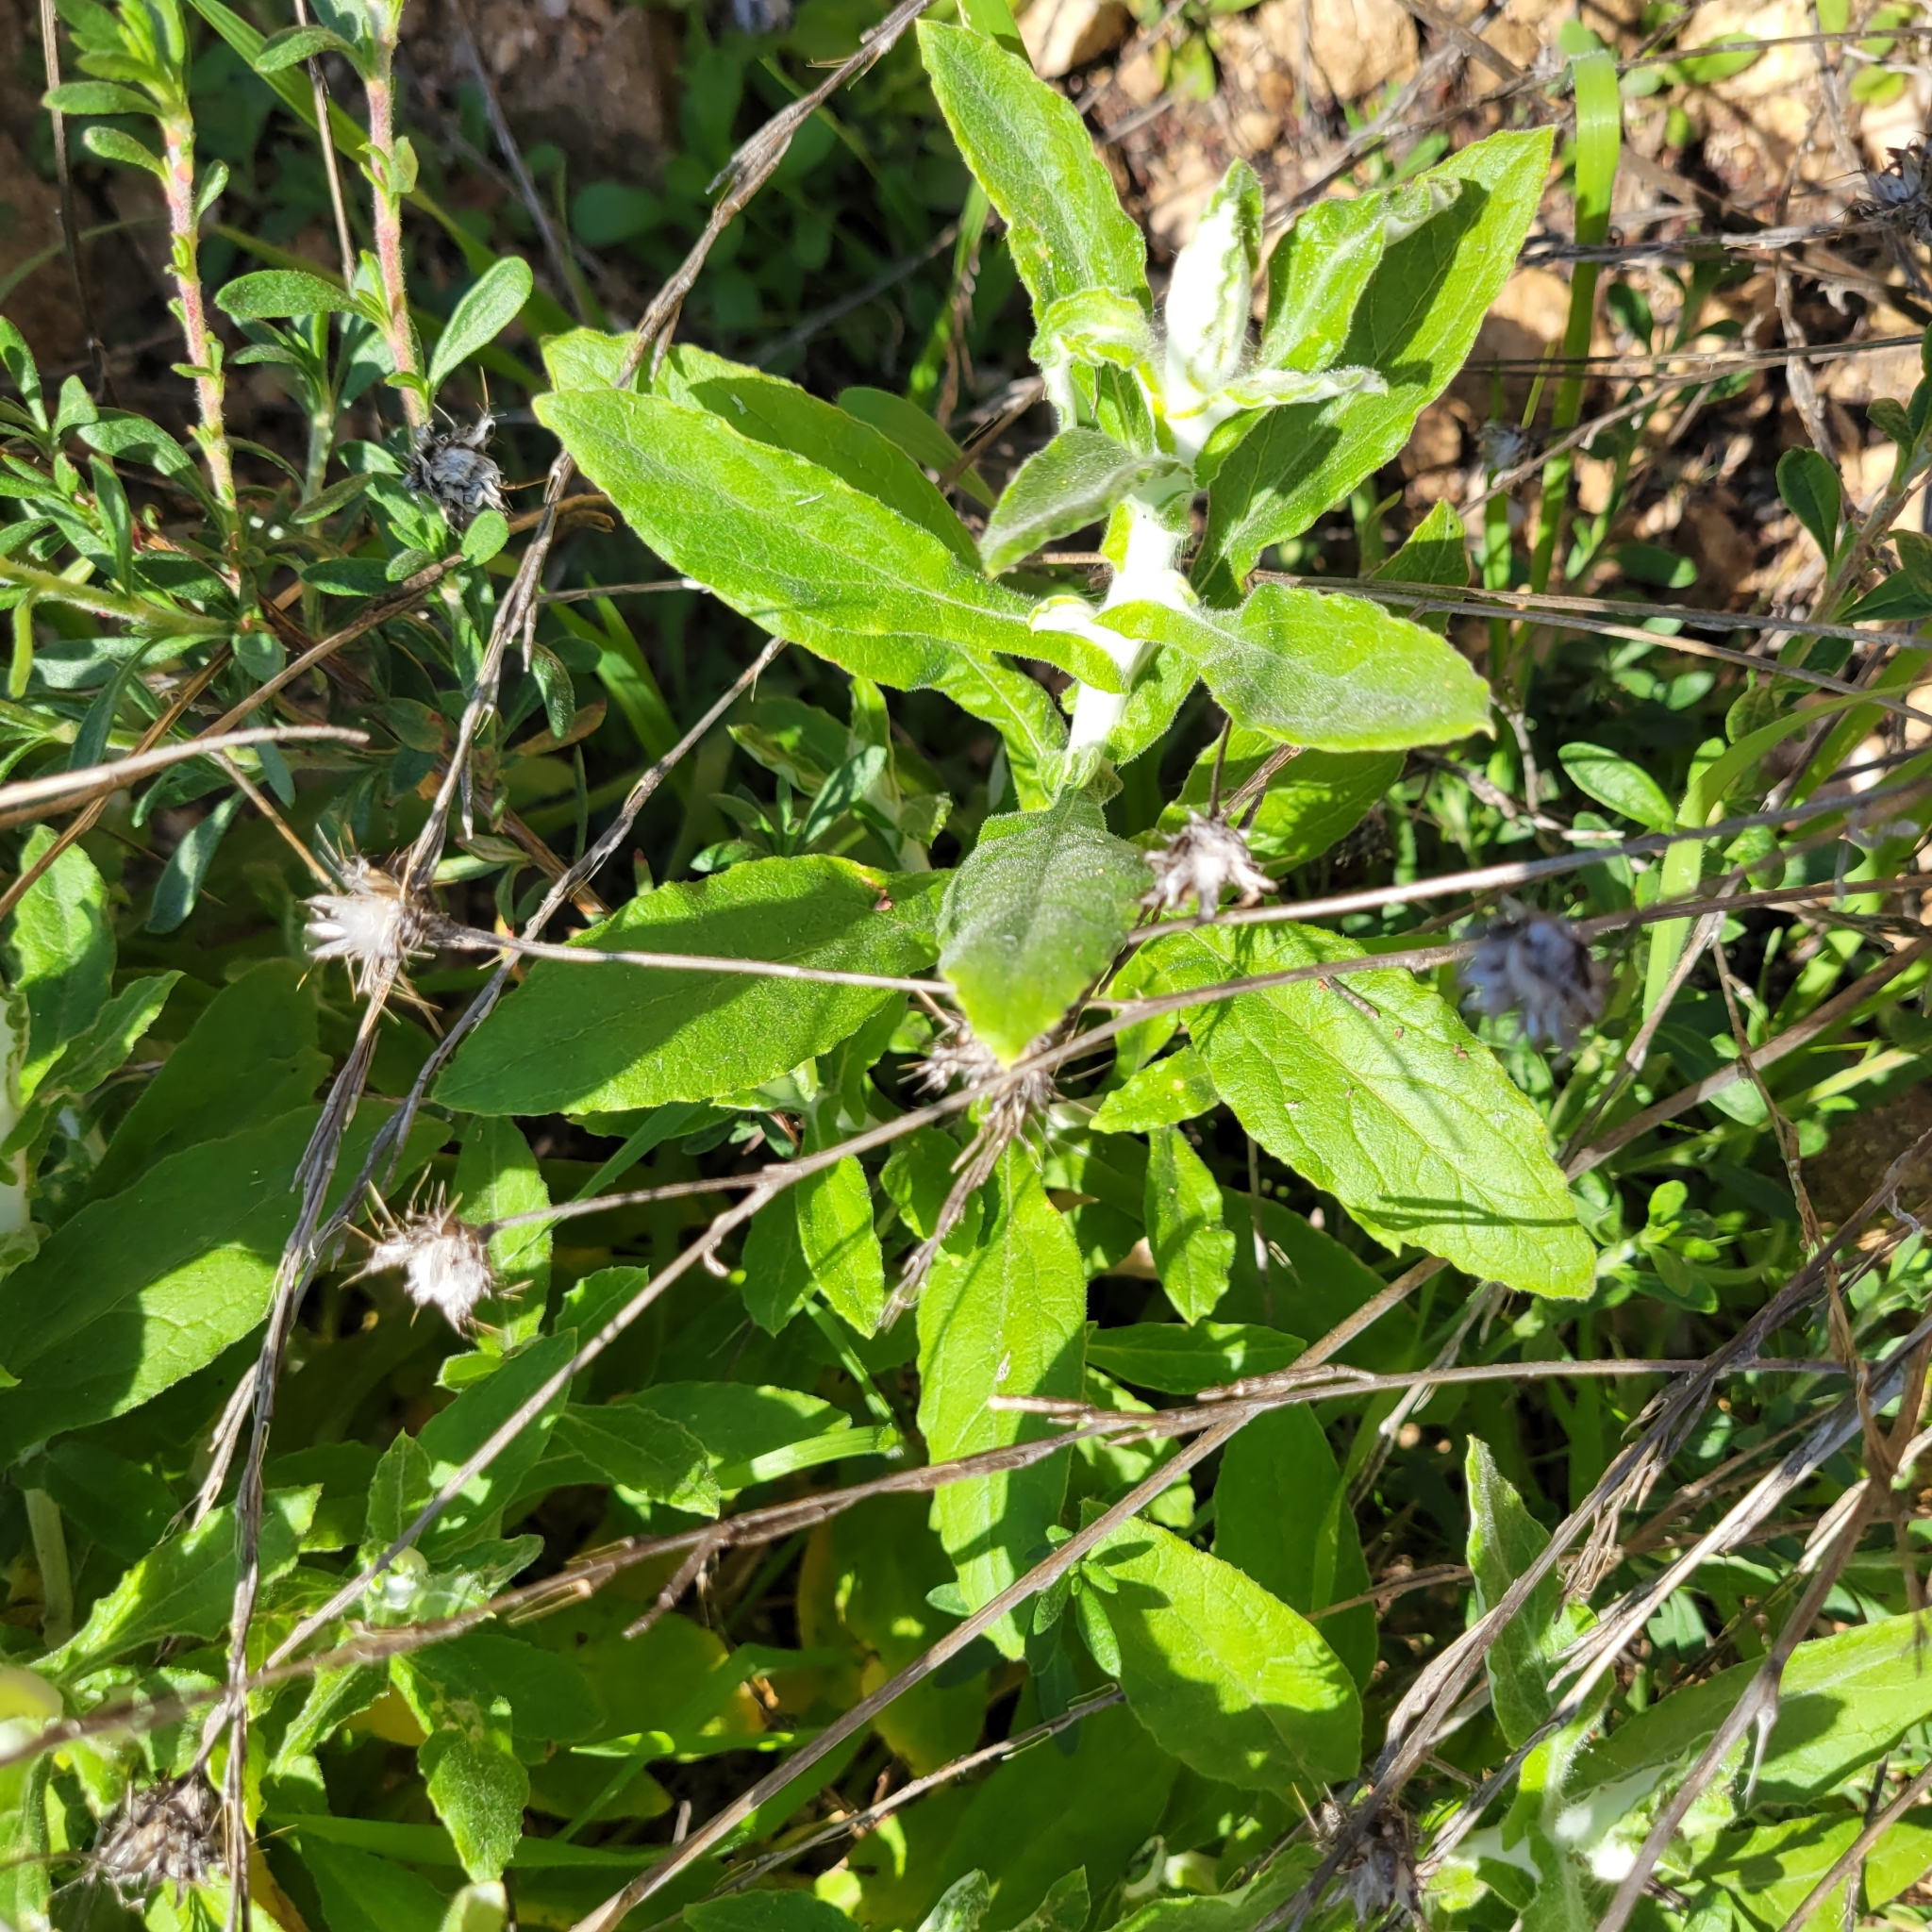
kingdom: Plantae
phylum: Tracheophyta
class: Magnoliopsida
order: Asterales
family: Asteraceae
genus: Pseudognaphalium
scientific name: Pseudognaphalium biolettii
